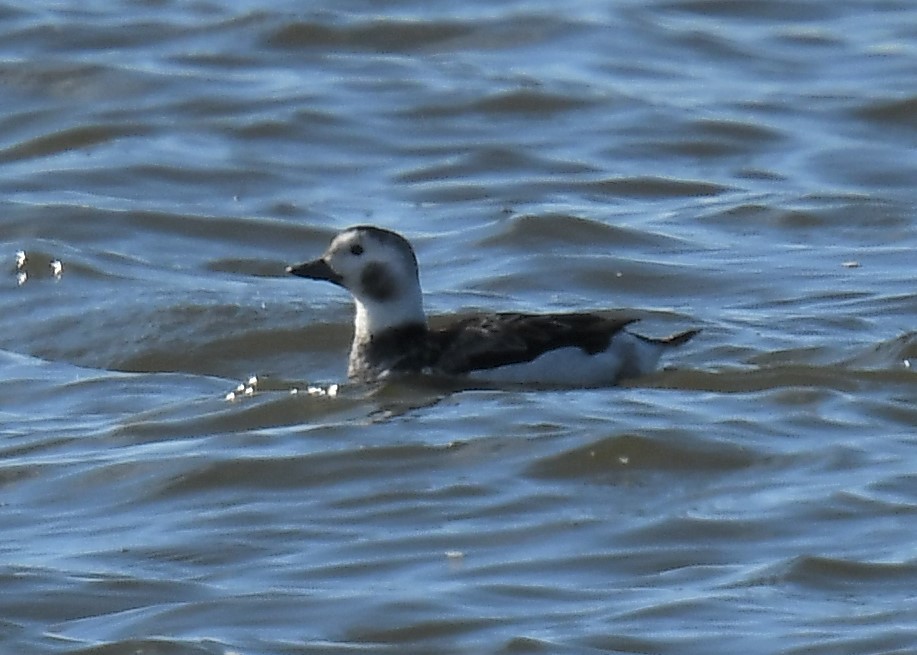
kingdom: Animalia
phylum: Chordata
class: Aves
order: Anseriformes
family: Anatidae
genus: Clangula
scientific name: Clangula hyemalis
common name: Long-tailed duck
